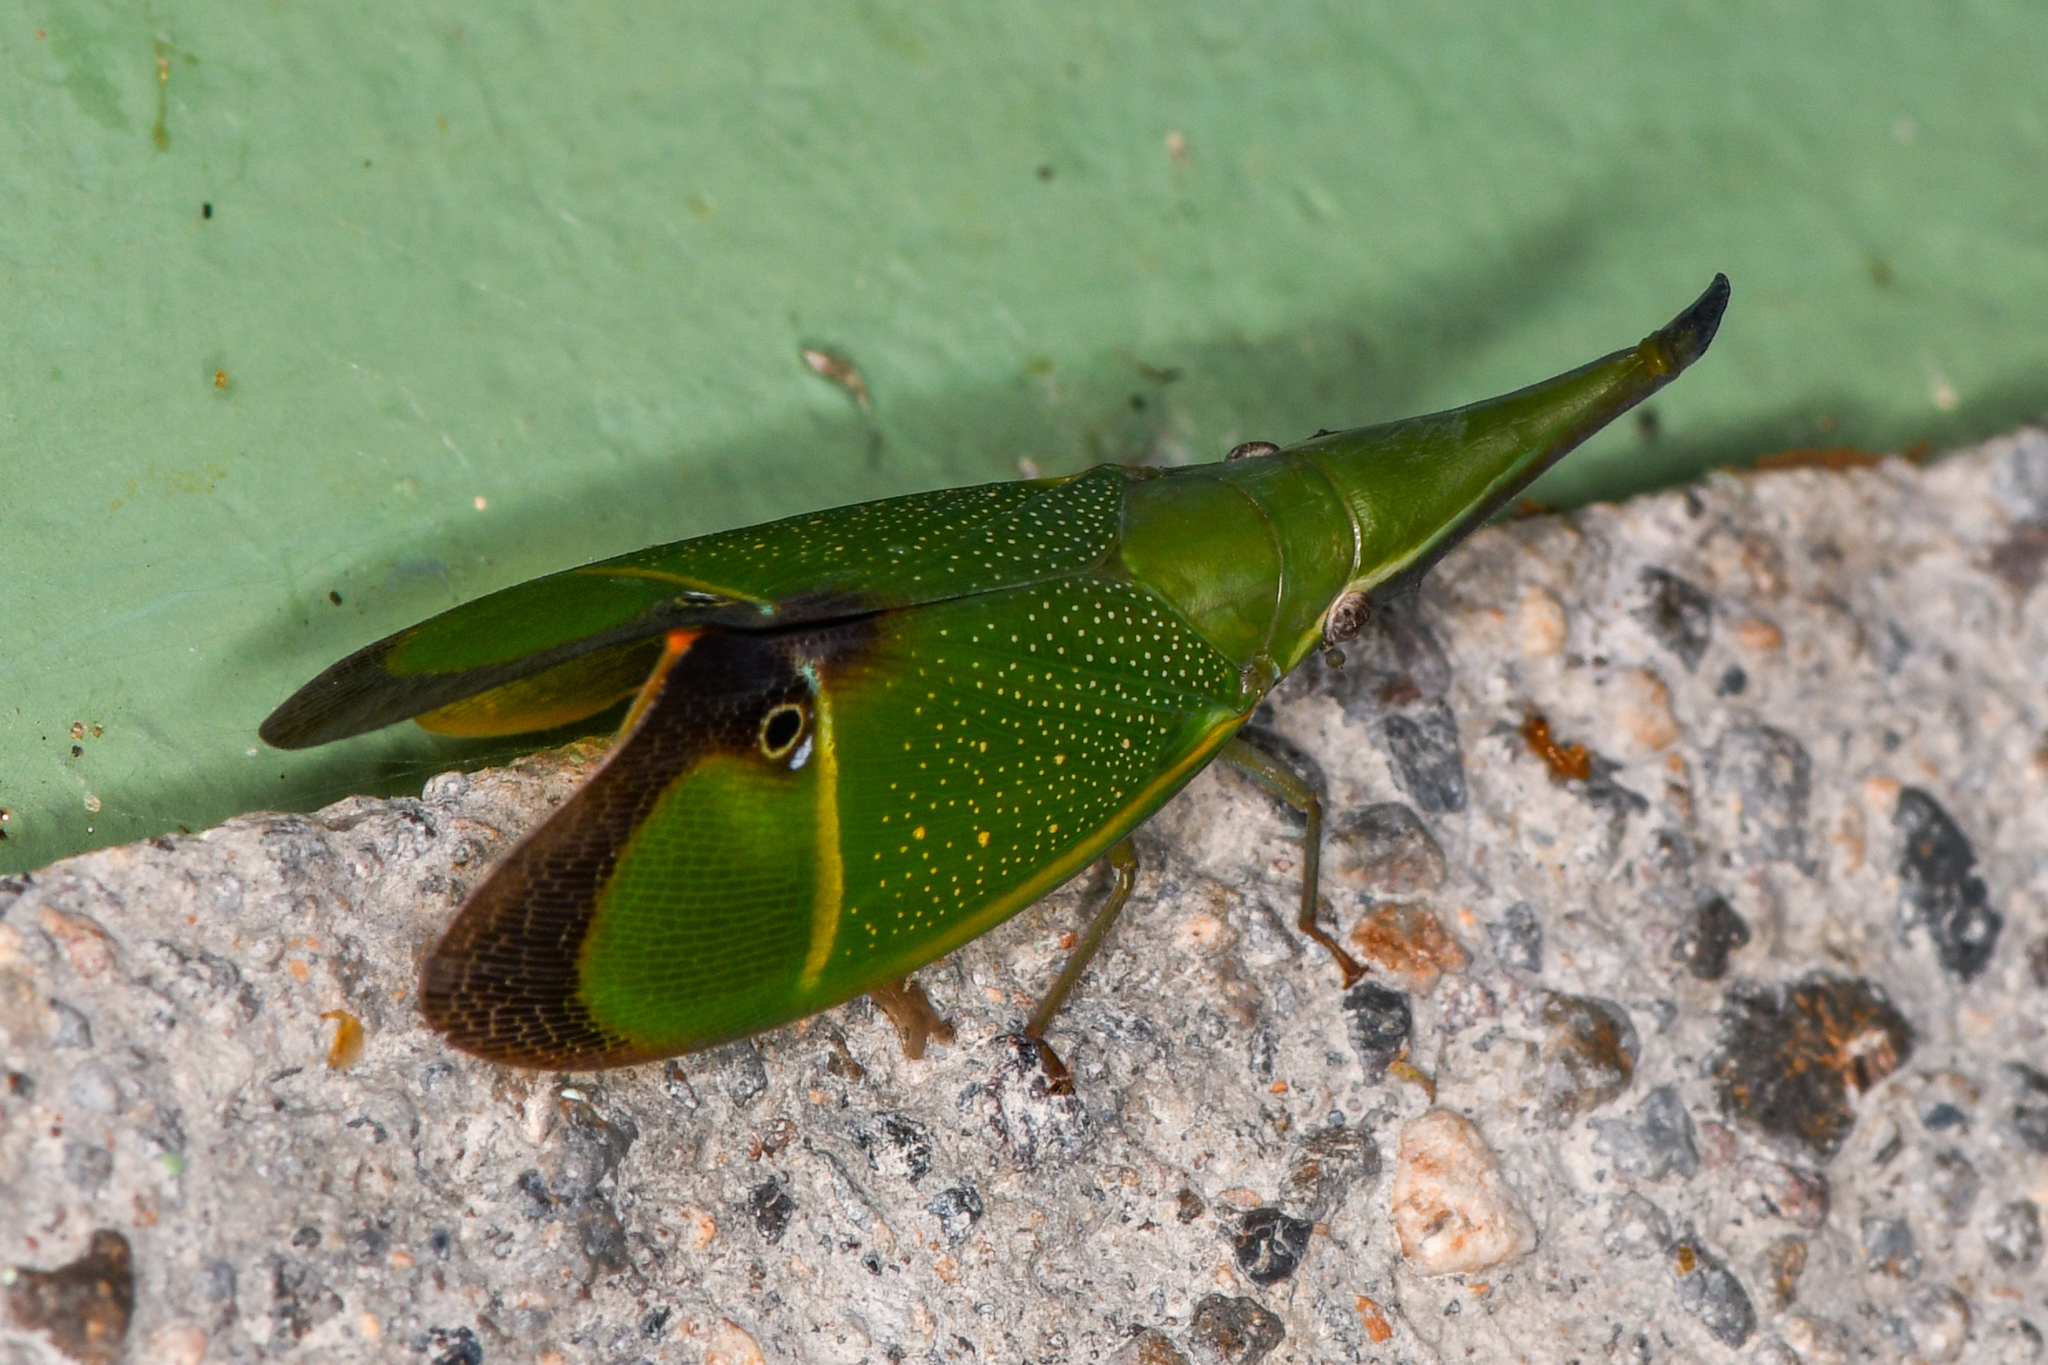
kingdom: Animalia
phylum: Arthropoda
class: Insecta
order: Hemiptera
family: Fulgoridae
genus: Odontoptera
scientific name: Odontoptera carrenoi
